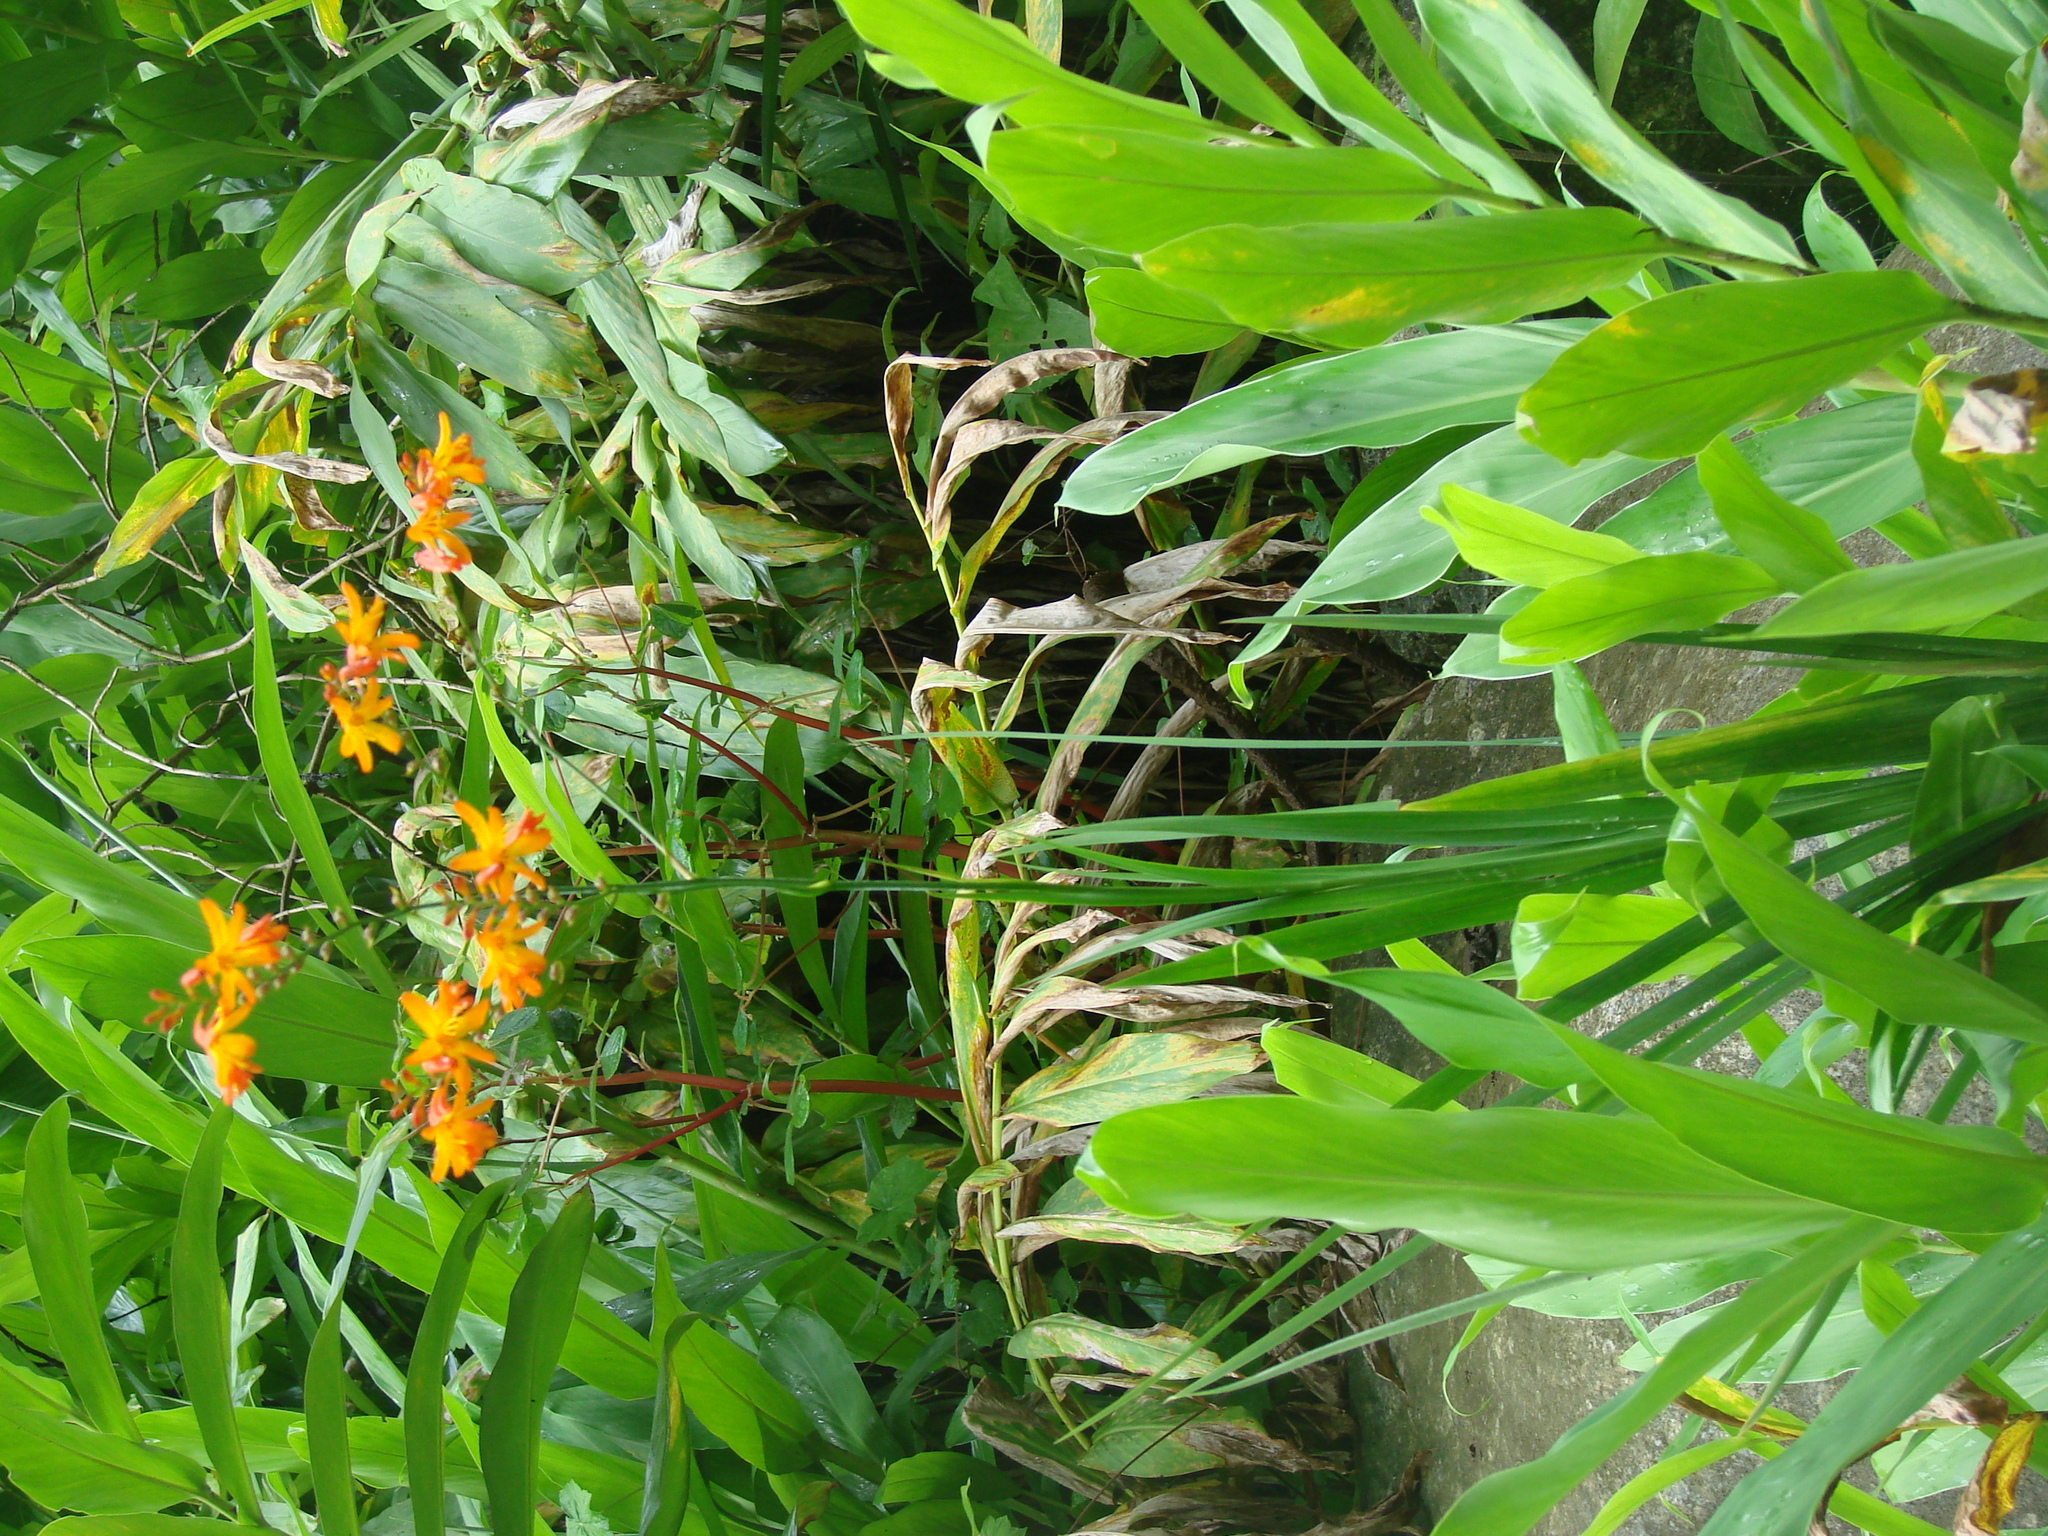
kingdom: Plantae
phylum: Tracheophyta
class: Liliopsida
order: Asparagales
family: Iridaceae
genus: Crocosmia
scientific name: Crocosmia crocosmiiflora
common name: Montbretia
